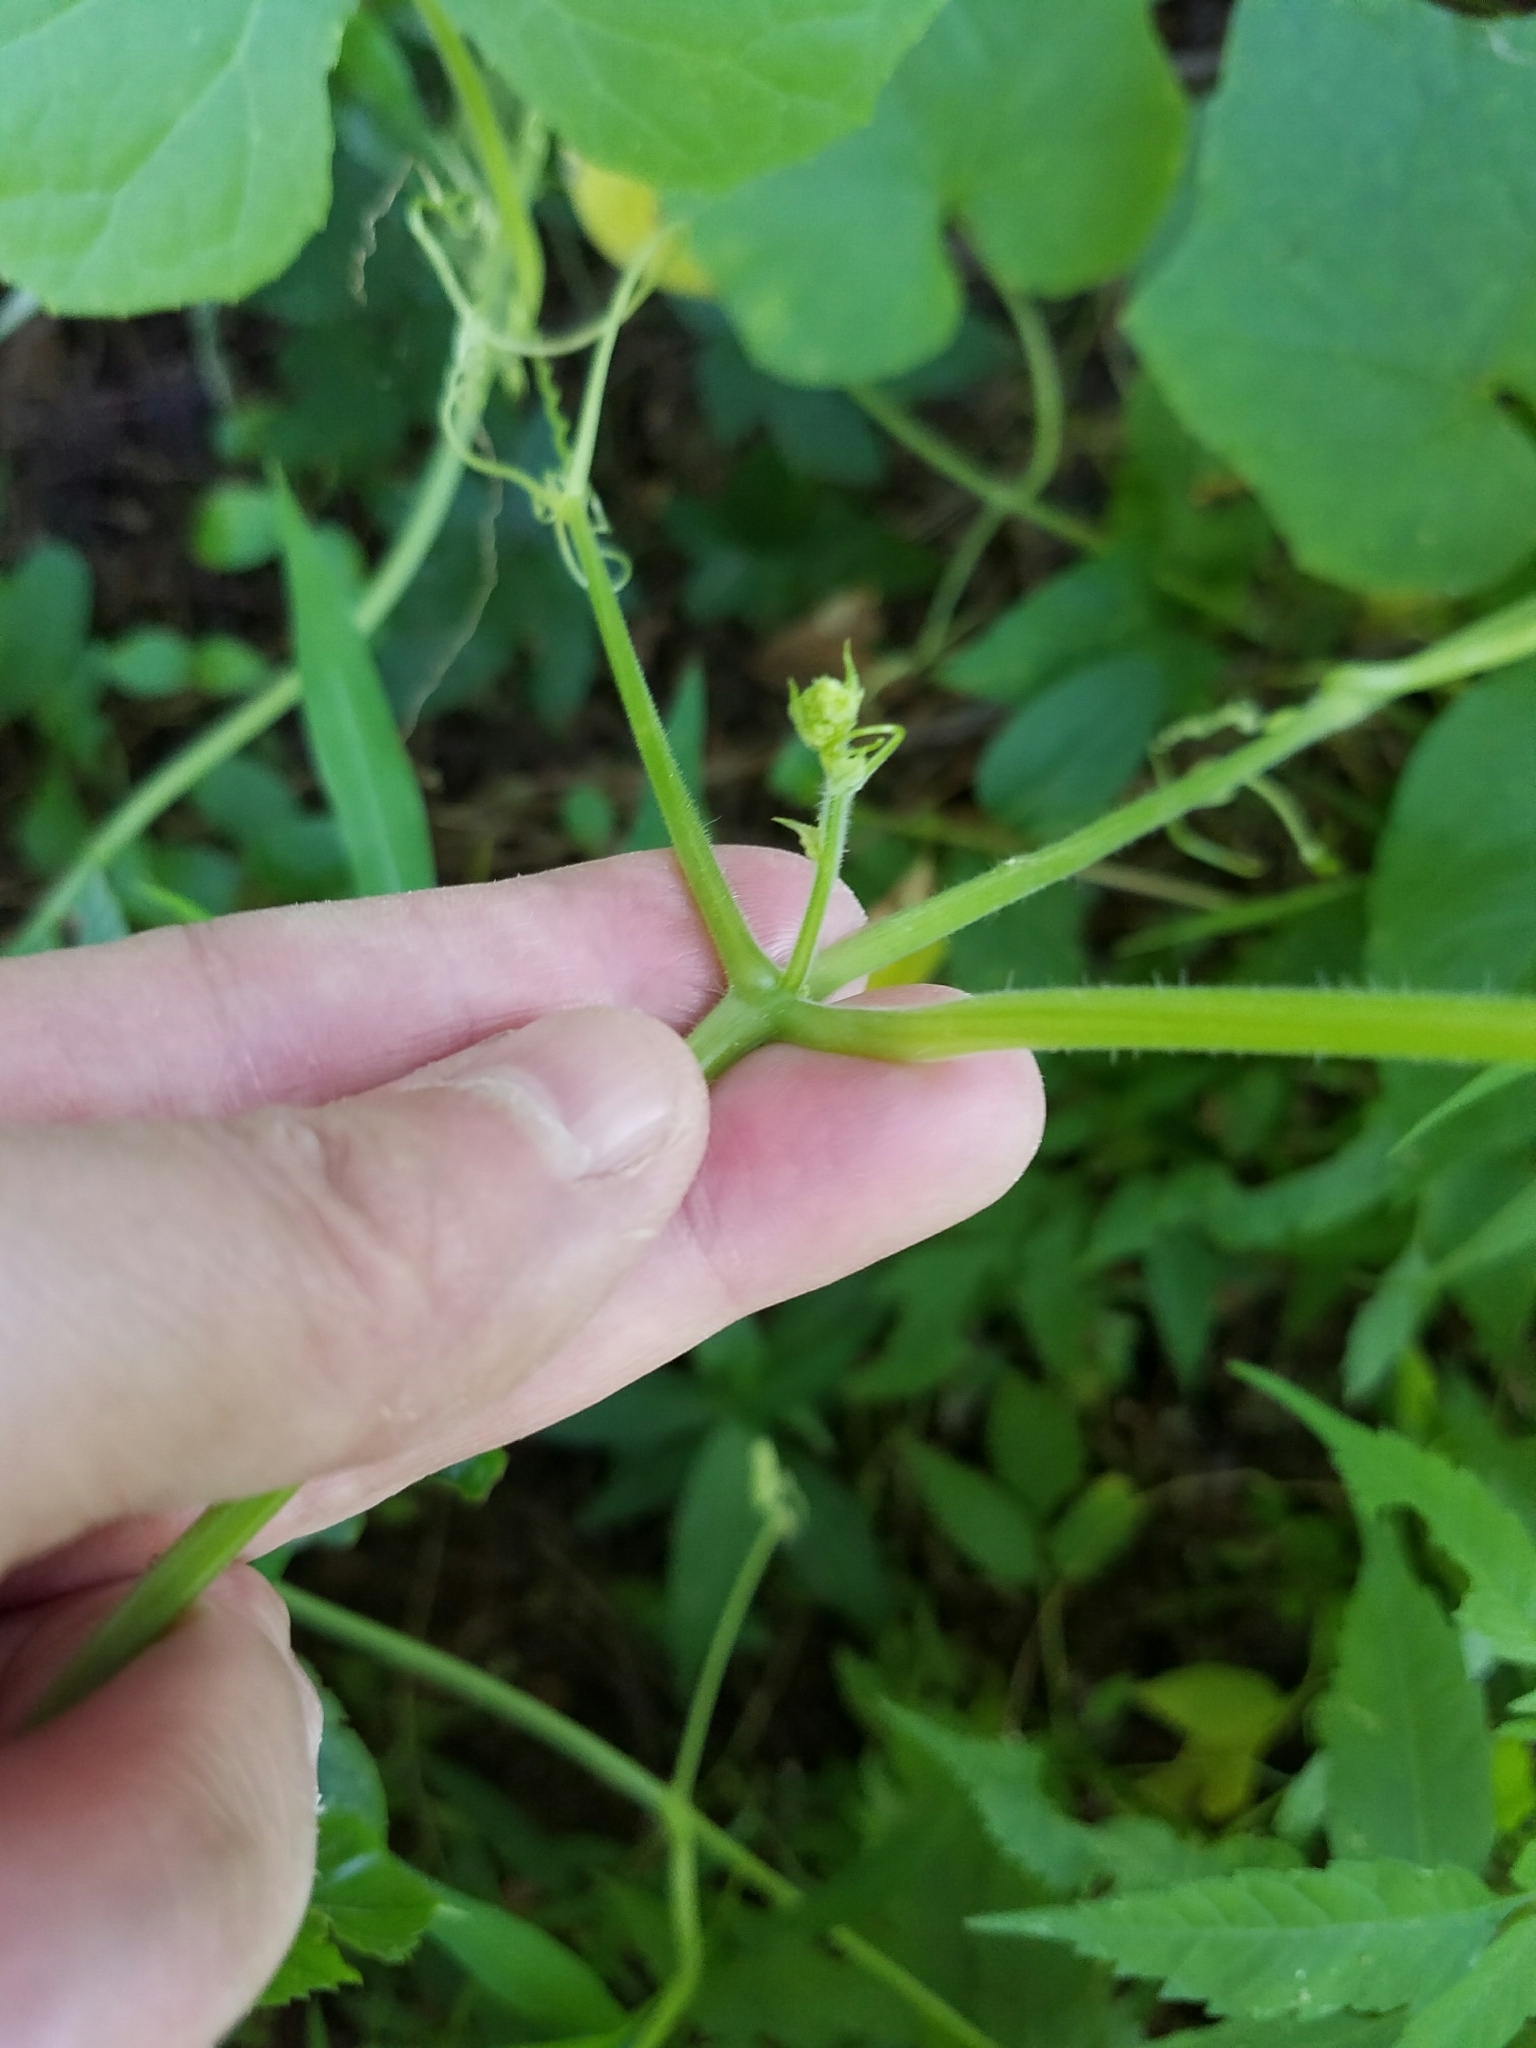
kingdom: Plantae
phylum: Tracheophyta
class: Magnoliopsida
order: Cucurbitales
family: Cucurbitaceae
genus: Sicyos
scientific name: Sicyos angulatus
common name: Angled burr cucumber
